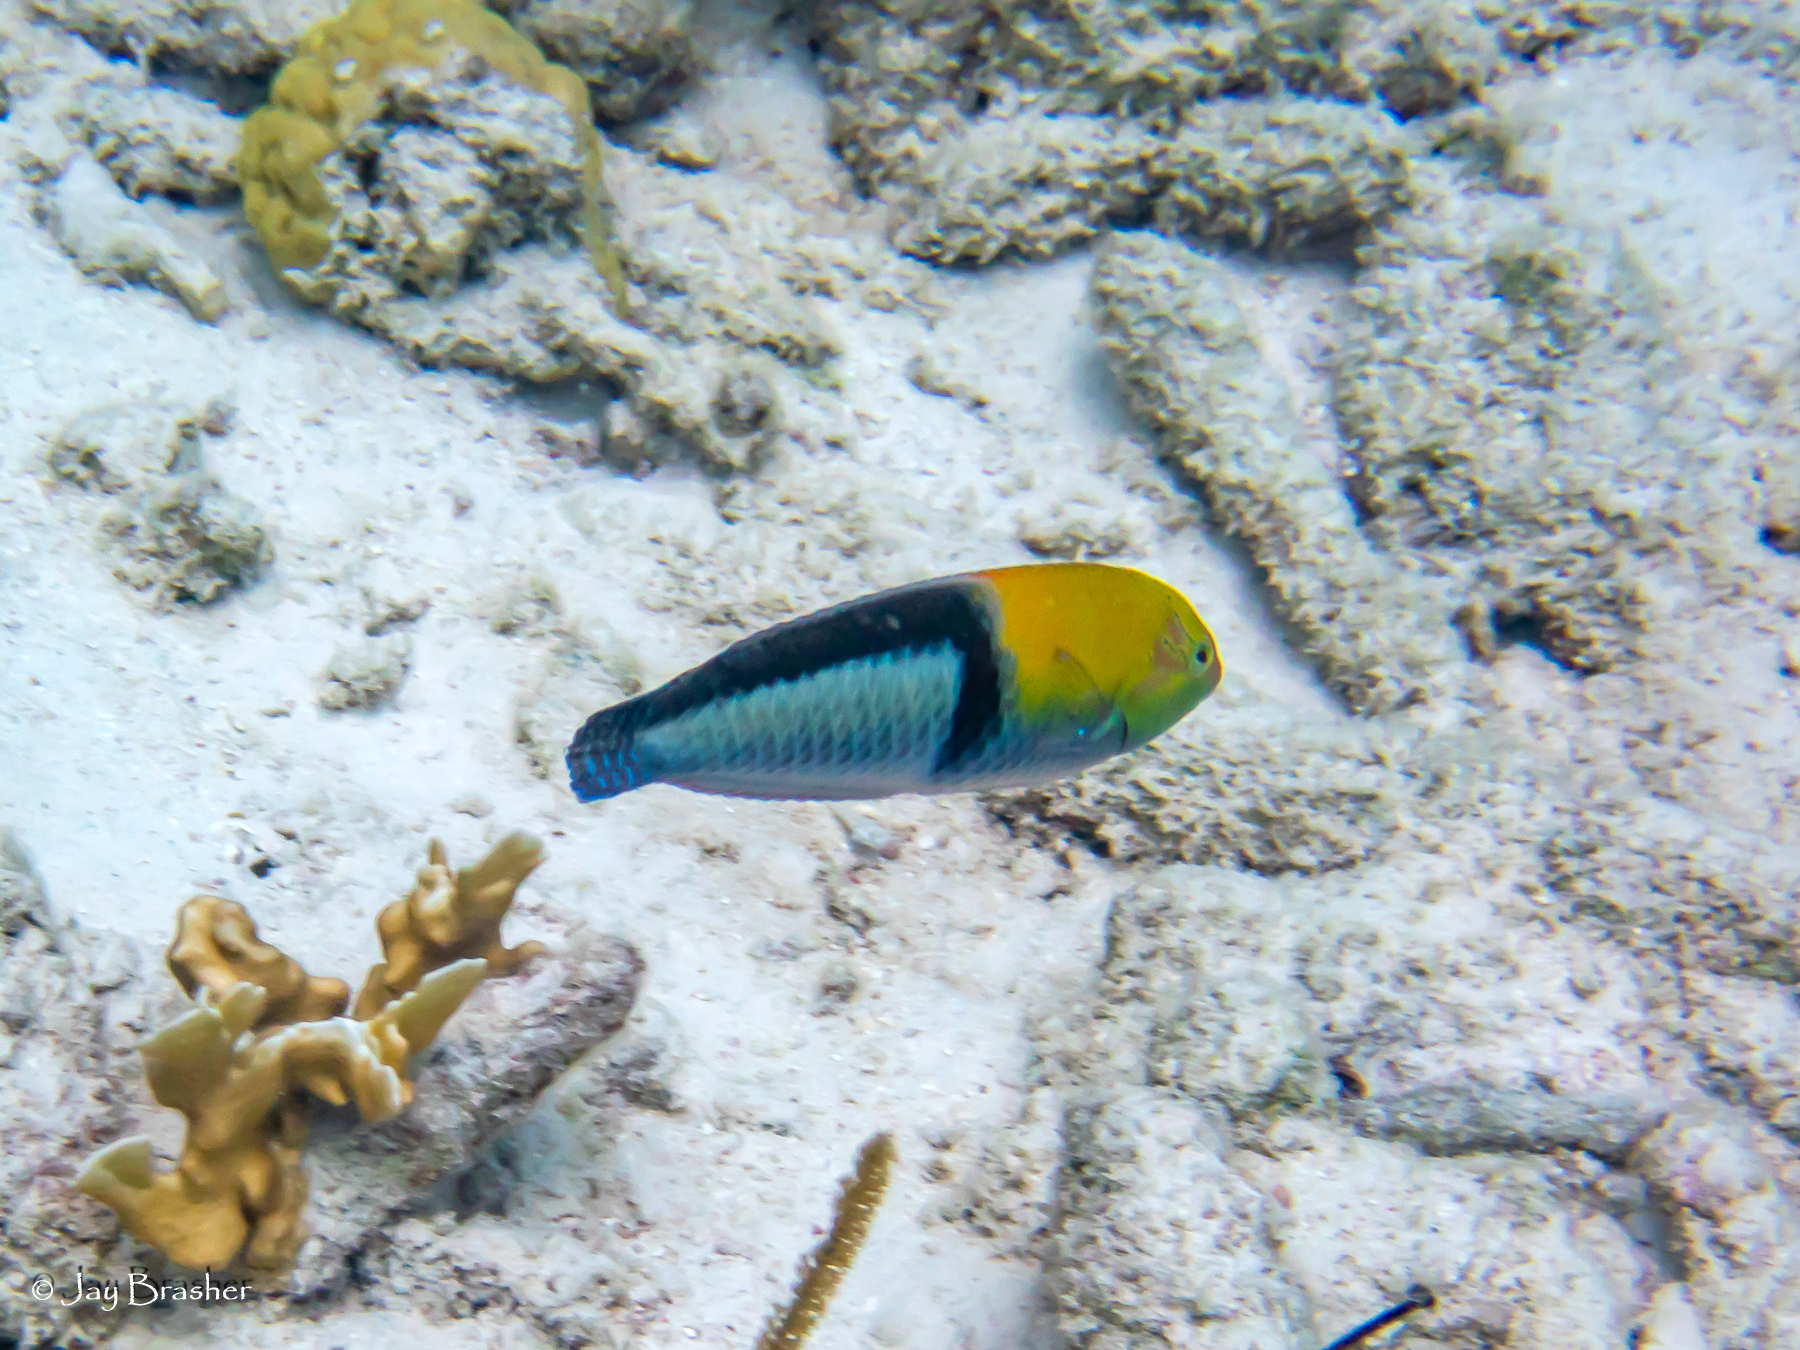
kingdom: Animalia
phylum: Chordata
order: Perciformes
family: Labridae
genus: Halichoeres
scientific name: Halichoeres garnoti
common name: Yellowhead wrasse
